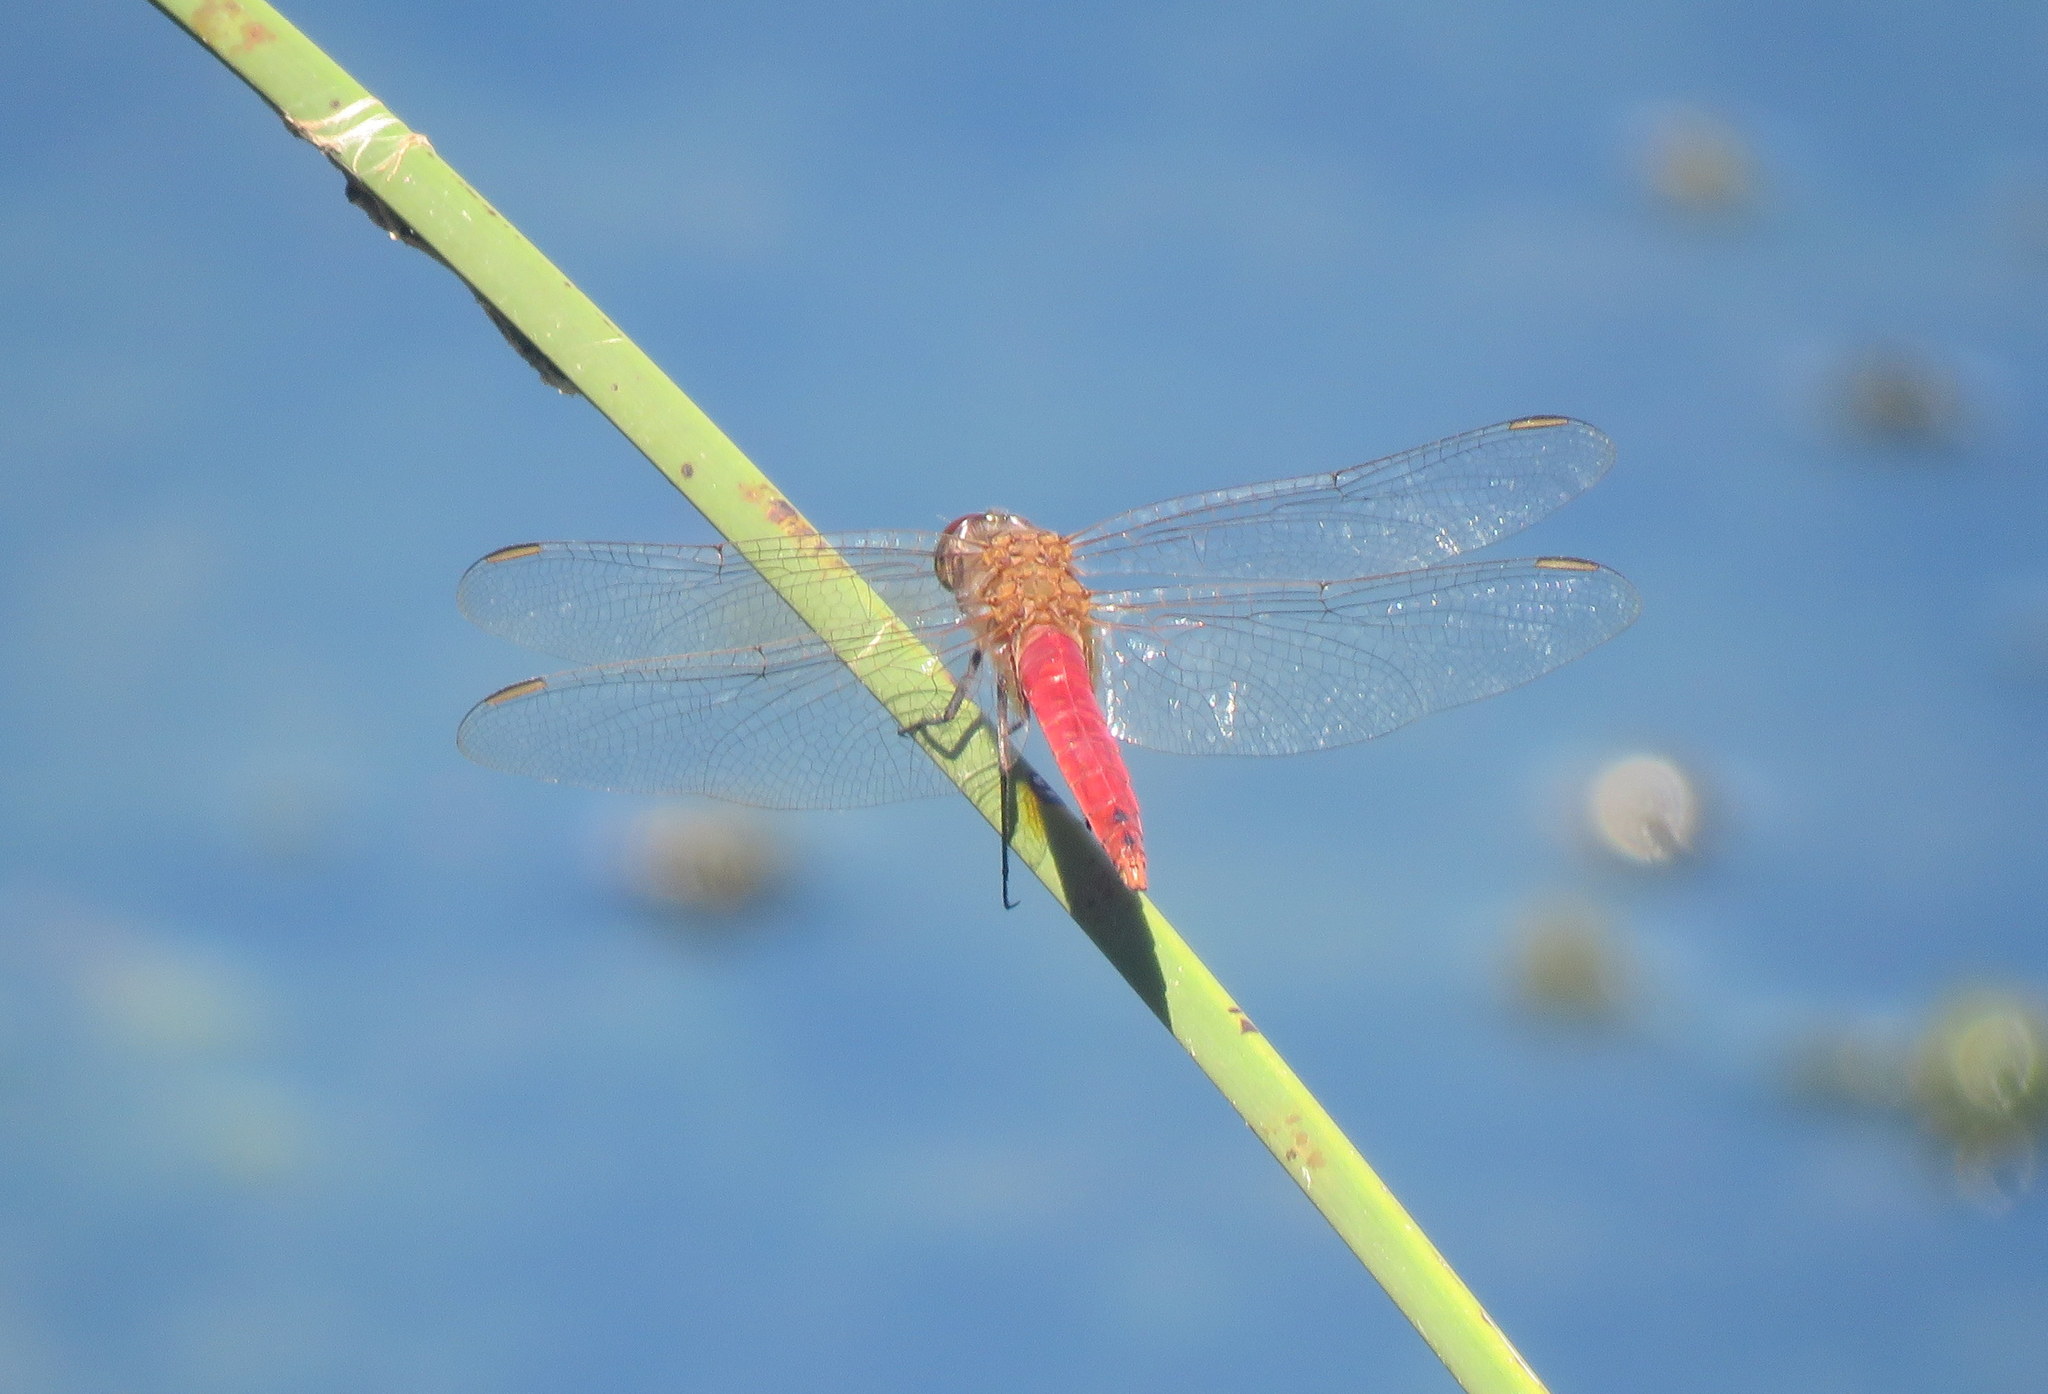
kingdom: Animalia
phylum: Arthropoda
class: Insecta
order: Odonata
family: Libellulidae
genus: Brachymesia
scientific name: Brachymesia furcata
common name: Red-taled pennant
